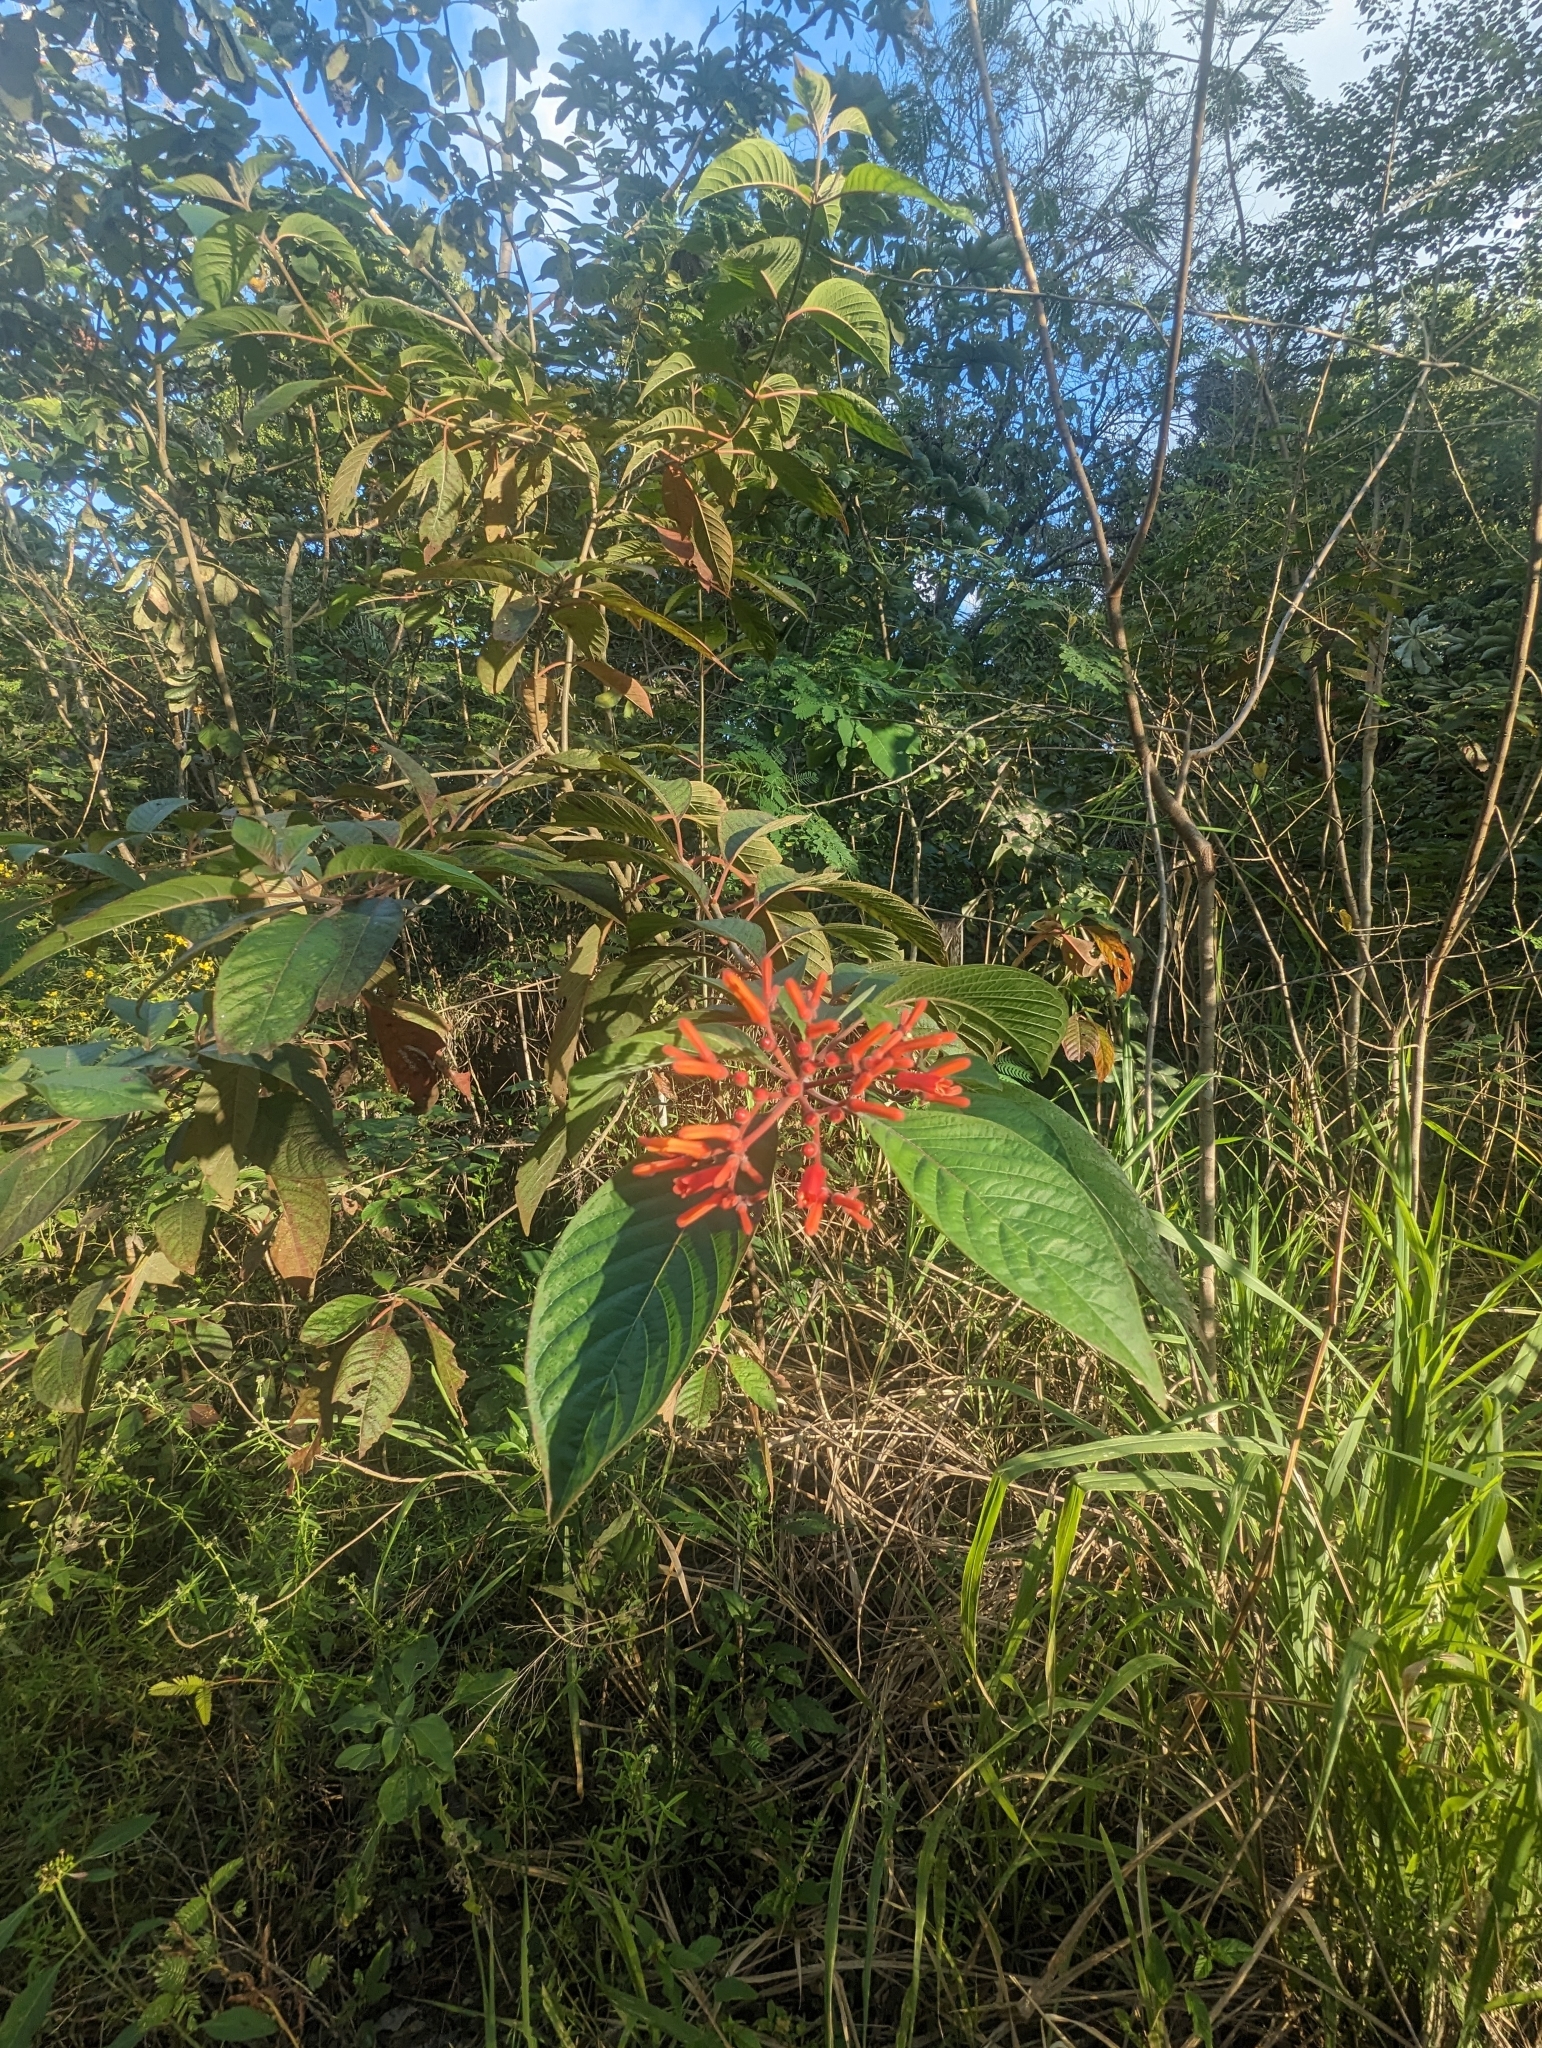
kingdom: Plantae
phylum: Tracheophyta
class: Magnoliopsida
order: Gentianales
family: Rubiaceae
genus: Hamelia
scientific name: Hamelia patens
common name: Redhead
